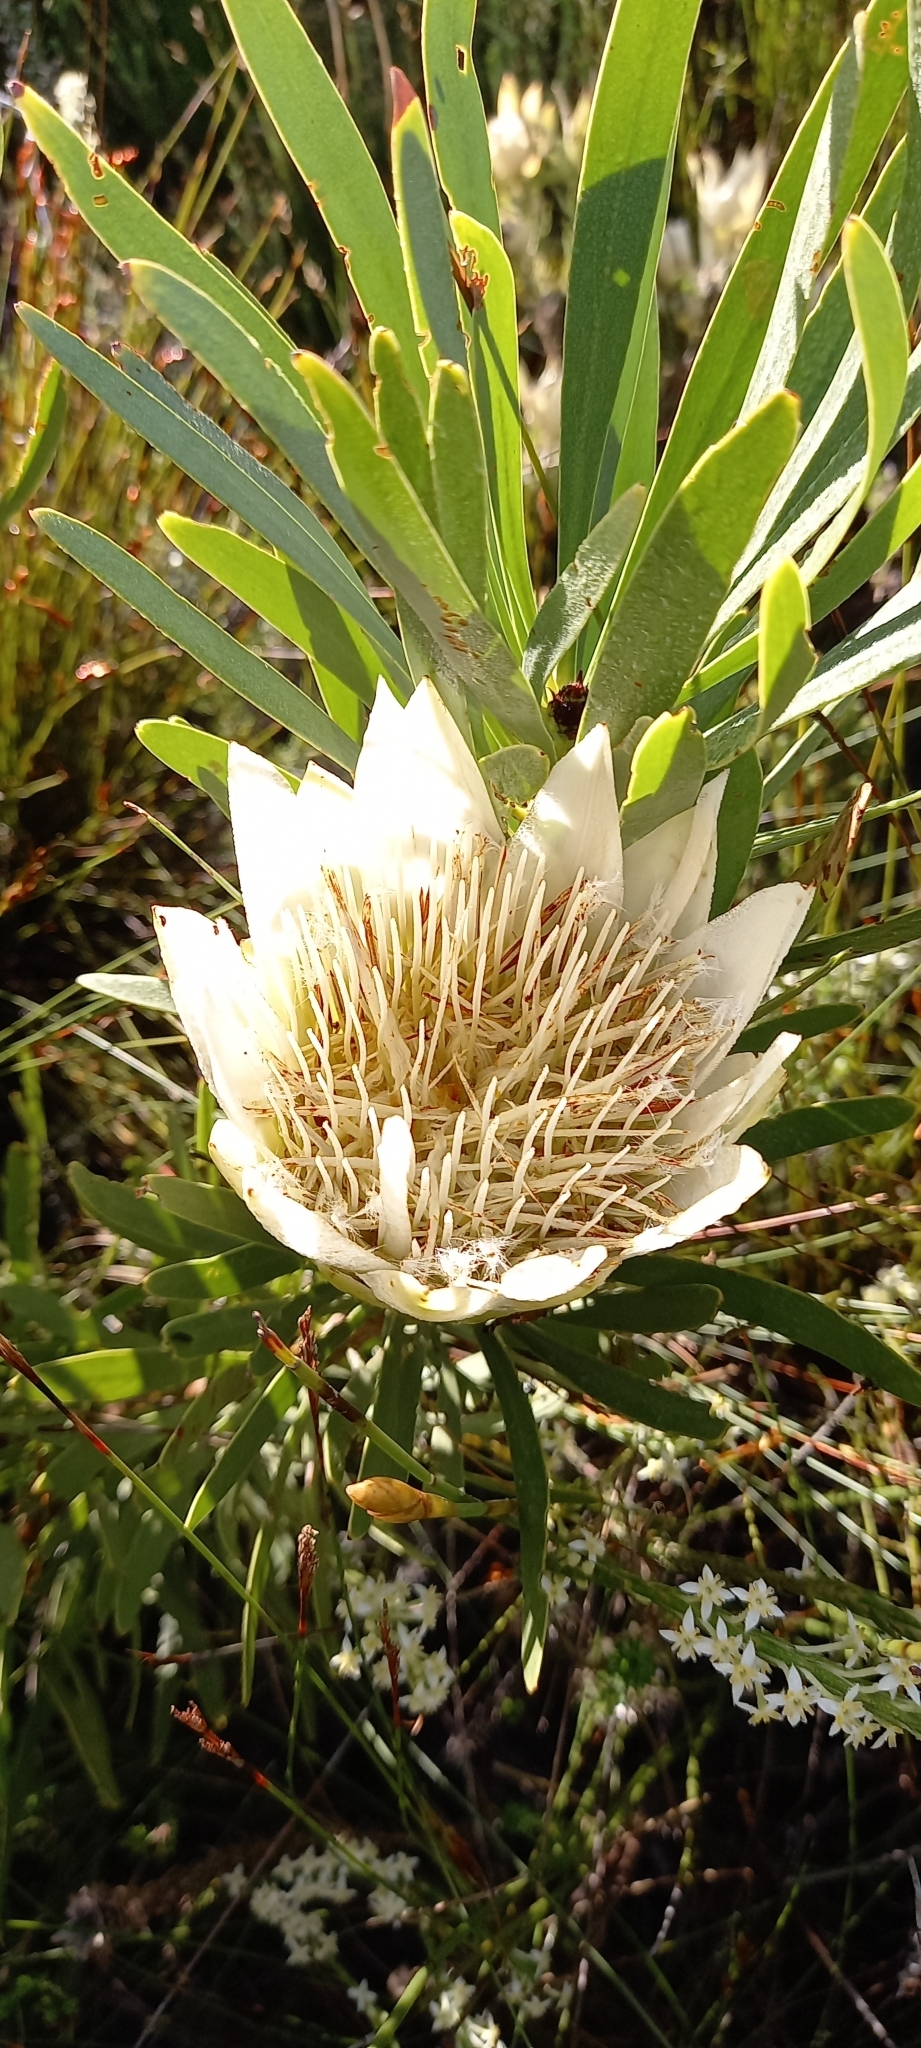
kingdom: Plantae
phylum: Tracheophyta
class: Magnoliopsida
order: Proteales
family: Proteaceae
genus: Protea
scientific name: Protea repens
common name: Sugarbush
